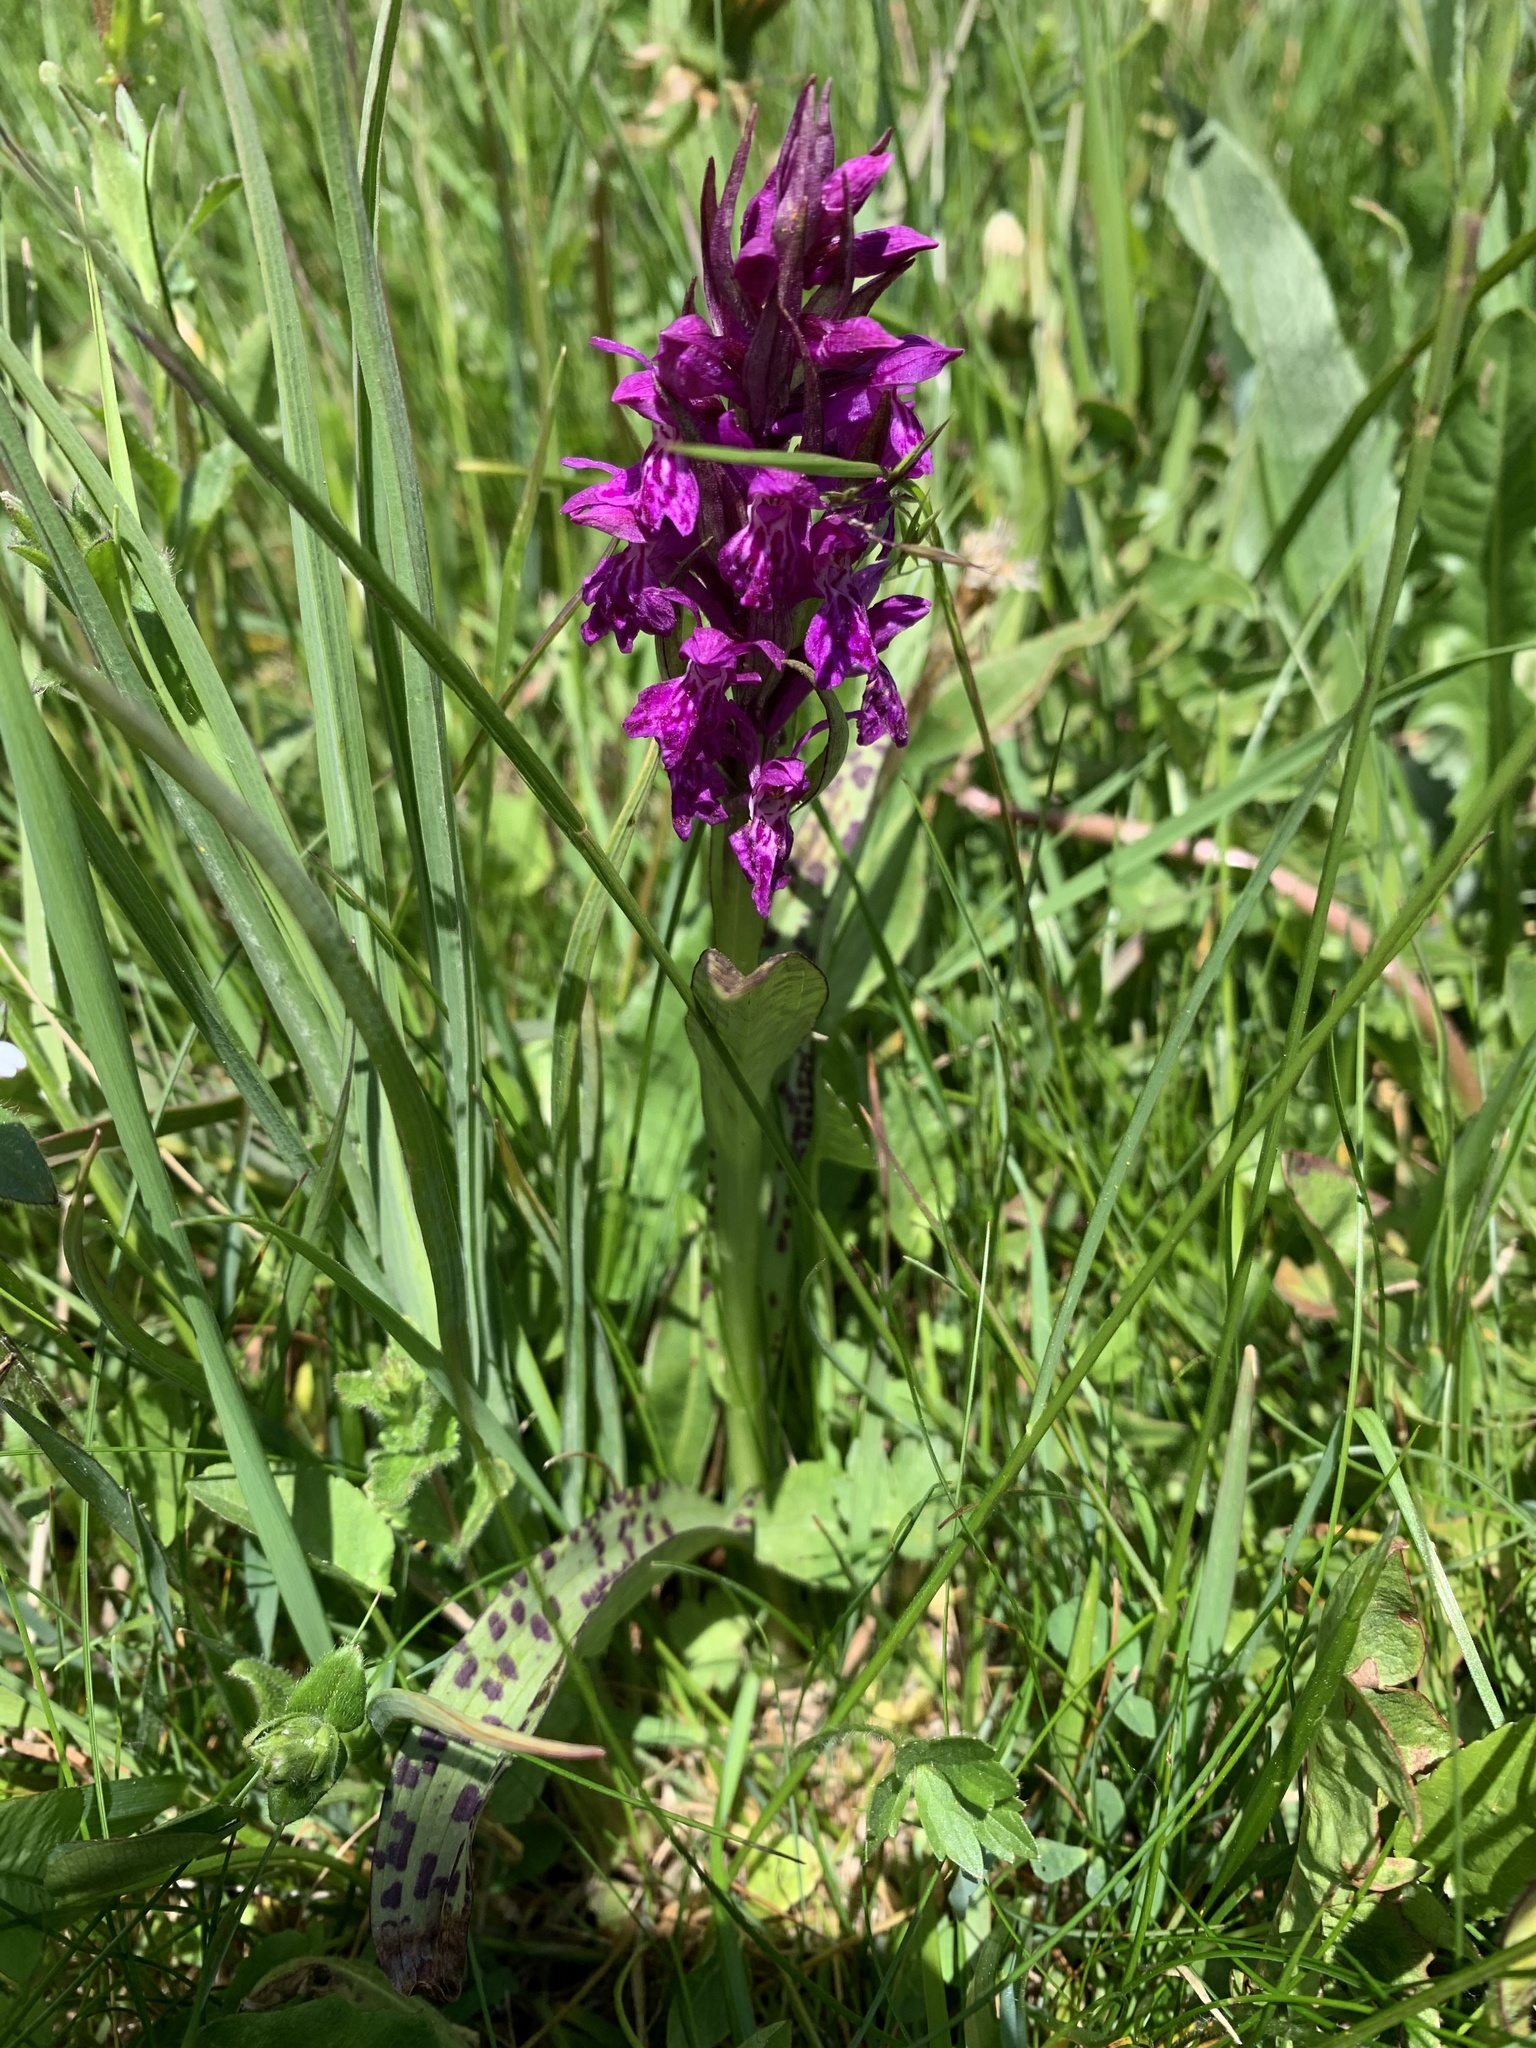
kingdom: Plantae
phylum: Tracheophyta
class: Liliopsida
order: Asparagales
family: Orchidaceae
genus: Dactylorhiza
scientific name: Dactylorhiza majalis
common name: Marsh orchid
